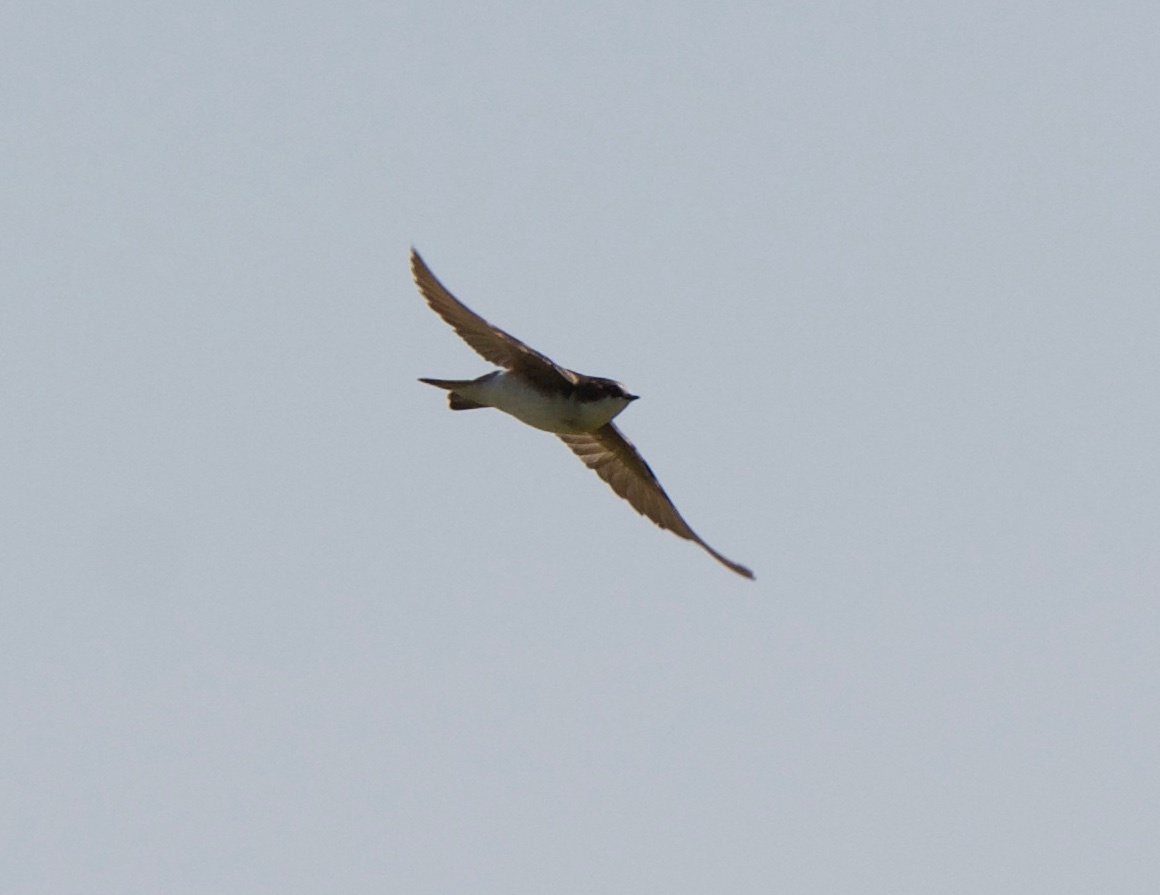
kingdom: Animalia
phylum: Chordata
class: Aves
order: Passeriformes
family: Hirundinidae
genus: Tachycineta
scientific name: Tachycineta bicolor
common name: Tree swallow
